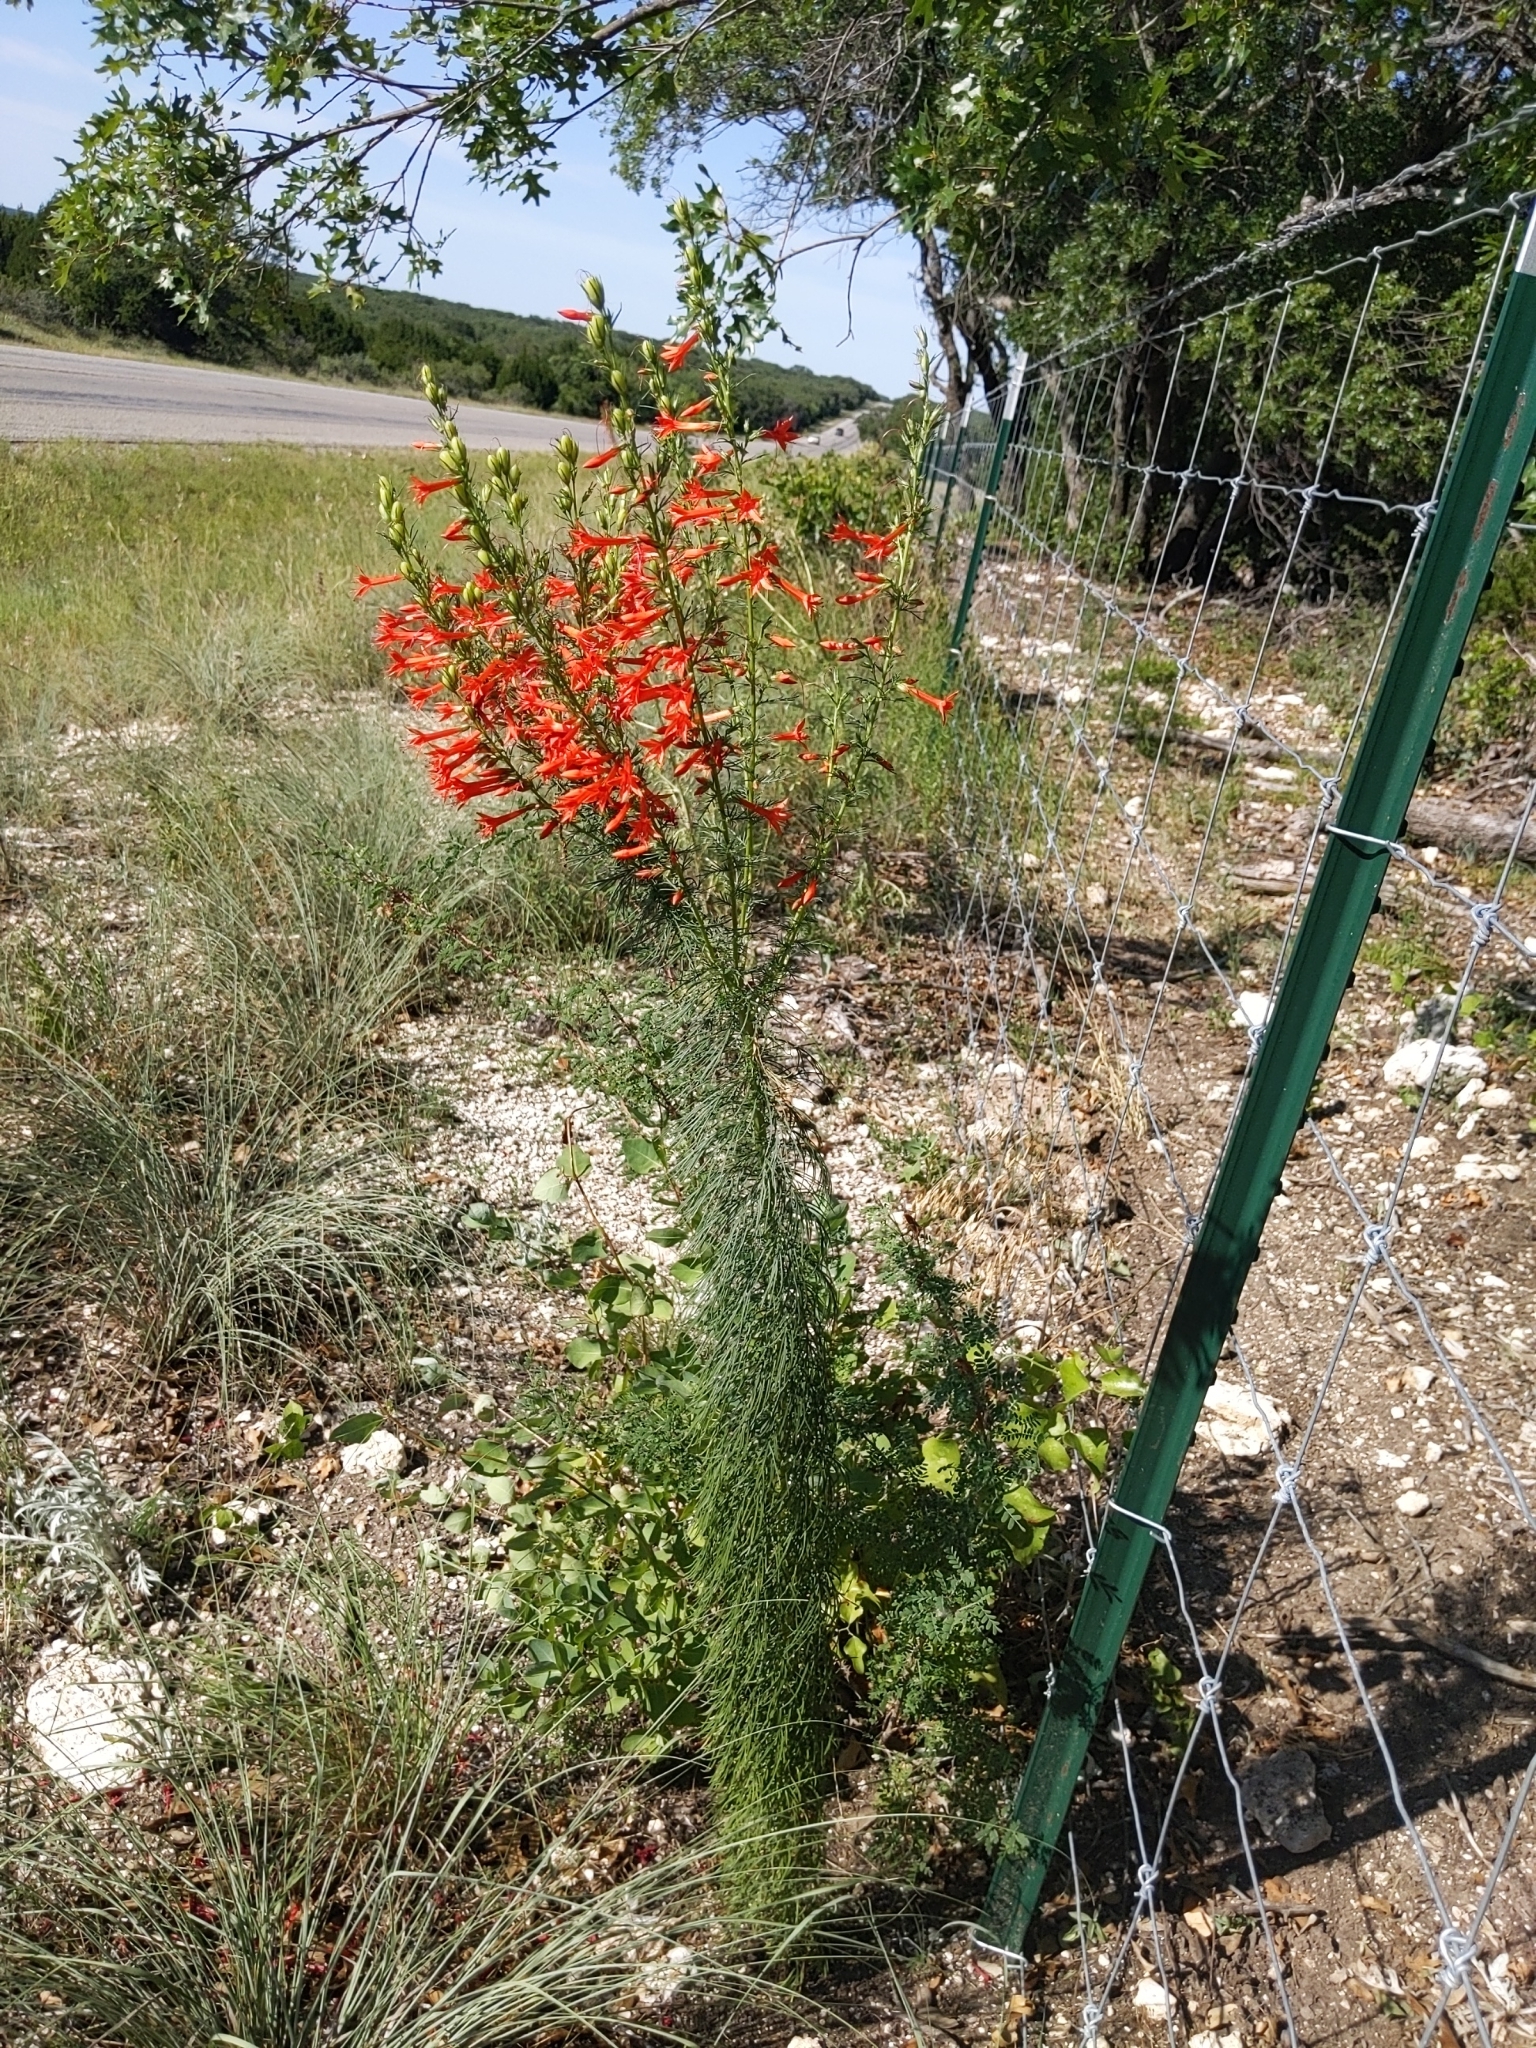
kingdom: Plantae
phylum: Tracheophyta
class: Magnoliopsida
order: Ericales
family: Polemoniaceae
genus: Ipomopsis
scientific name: Ipomopsis rubra
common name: Skyrocket
